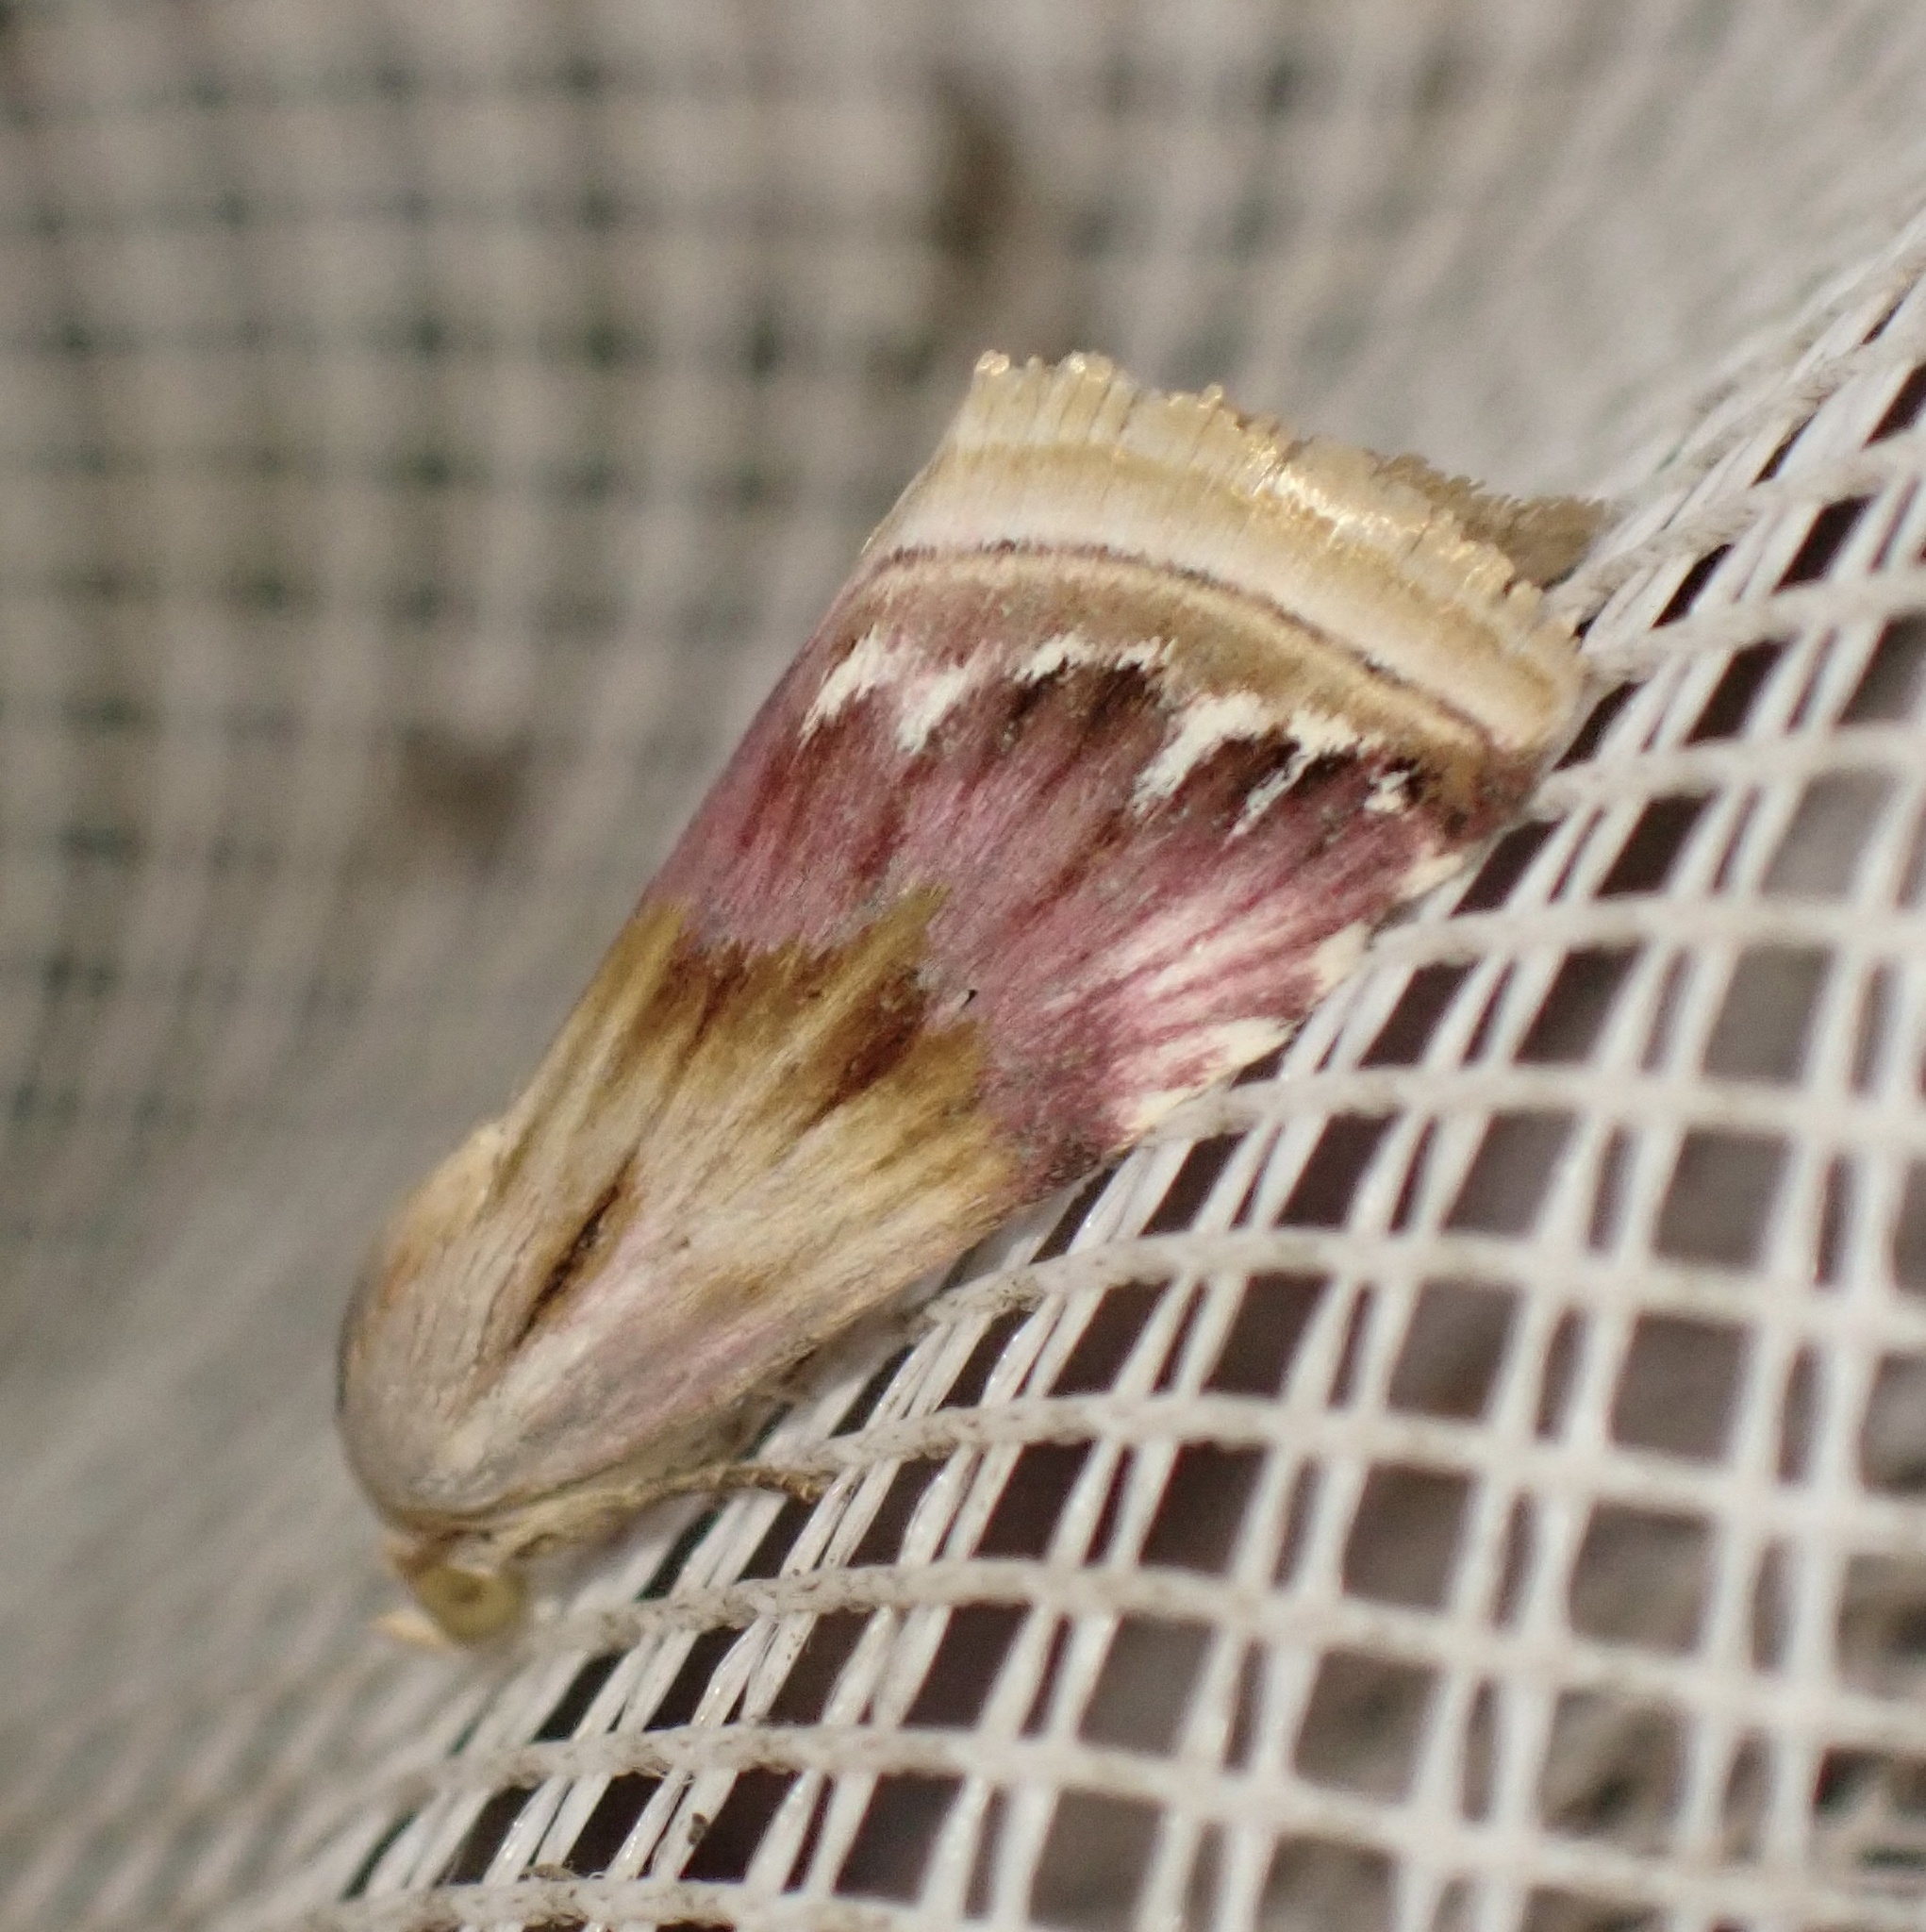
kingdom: Animalia
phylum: Arthropoda
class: Insecta
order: Lepidoptera
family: Noctuidae
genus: Eublemma
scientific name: Eublemma ostrina
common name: Purple marbled
